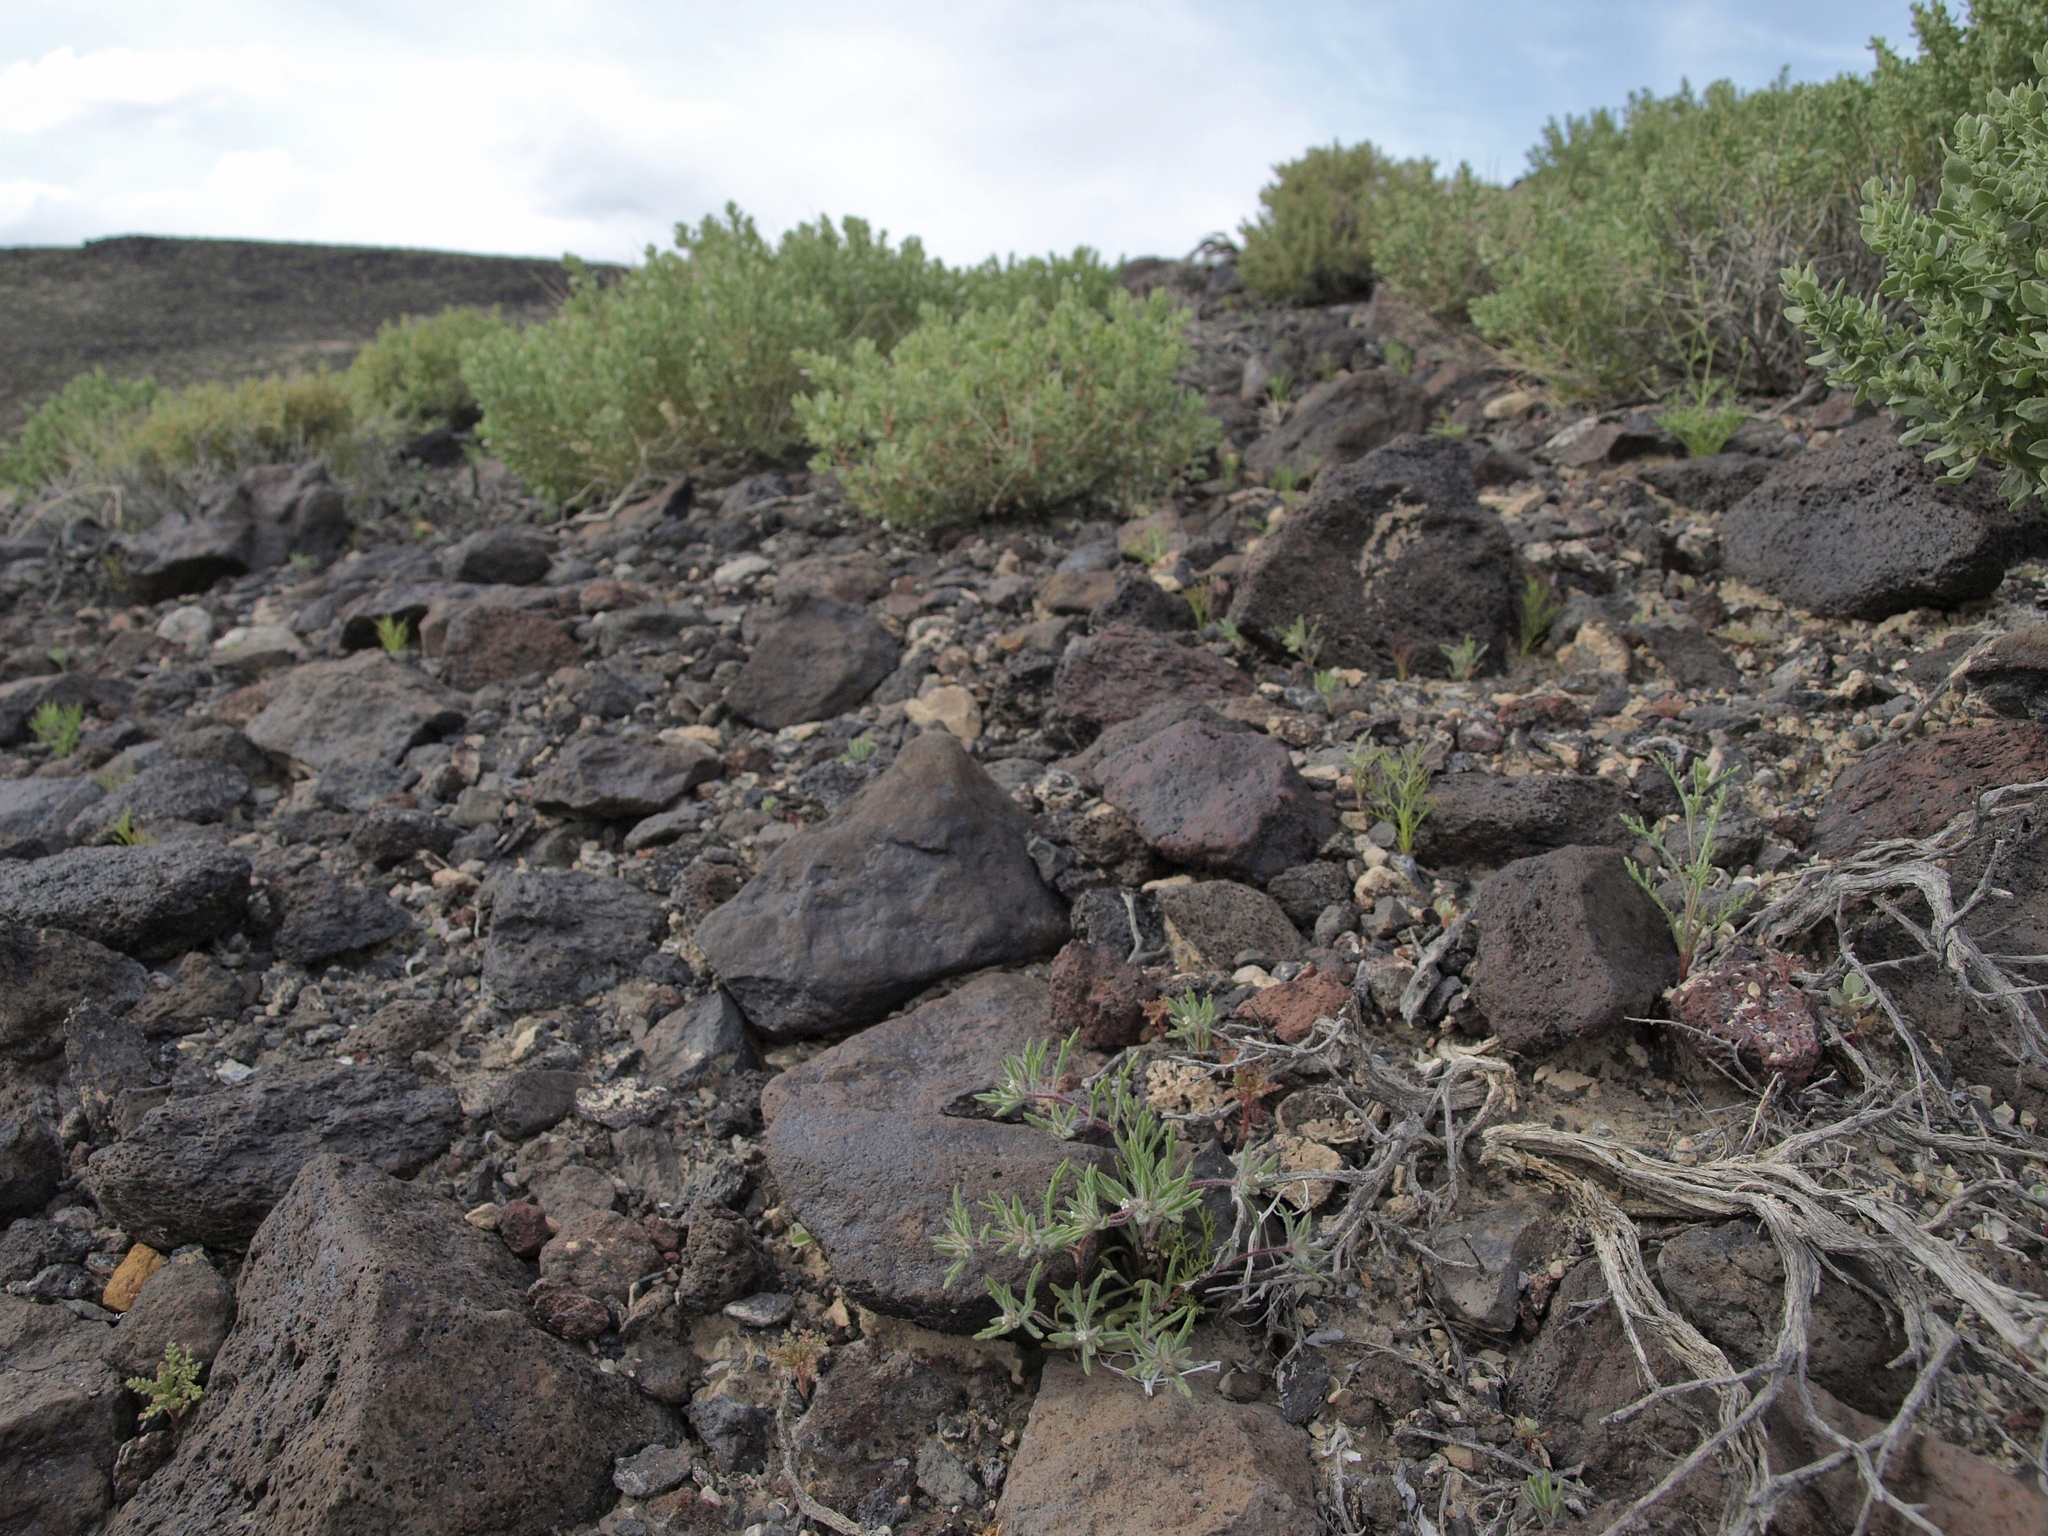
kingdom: Plantae
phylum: Tracheophyta
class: Magnoliopsida
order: Ericales
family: Polemoniaceae
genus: Loeseliastrum
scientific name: Loeseliastrum depressum
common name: Depressed ipomopsis
